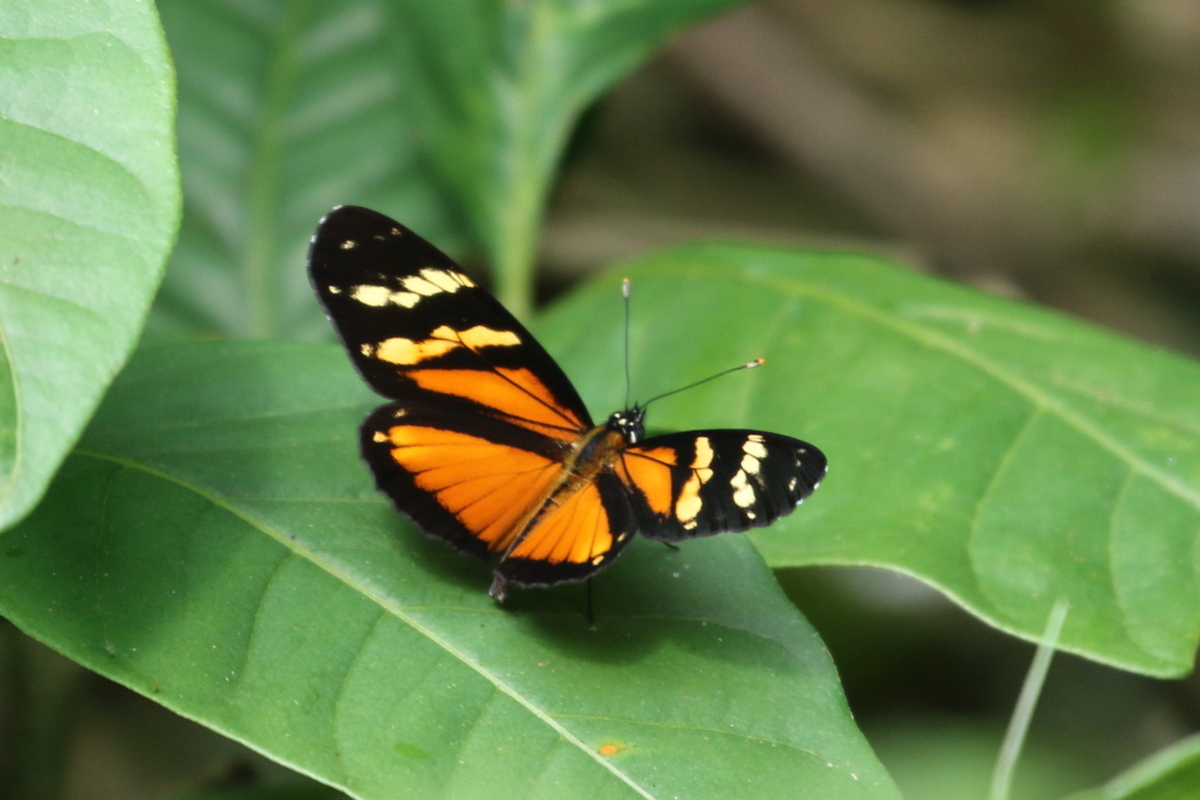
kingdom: Animalia
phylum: Arthropoda
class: Insecta
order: Lepidoptera
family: Nymphalidae
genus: Eresia
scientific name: Eresia ithomioides
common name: Variable crescent
